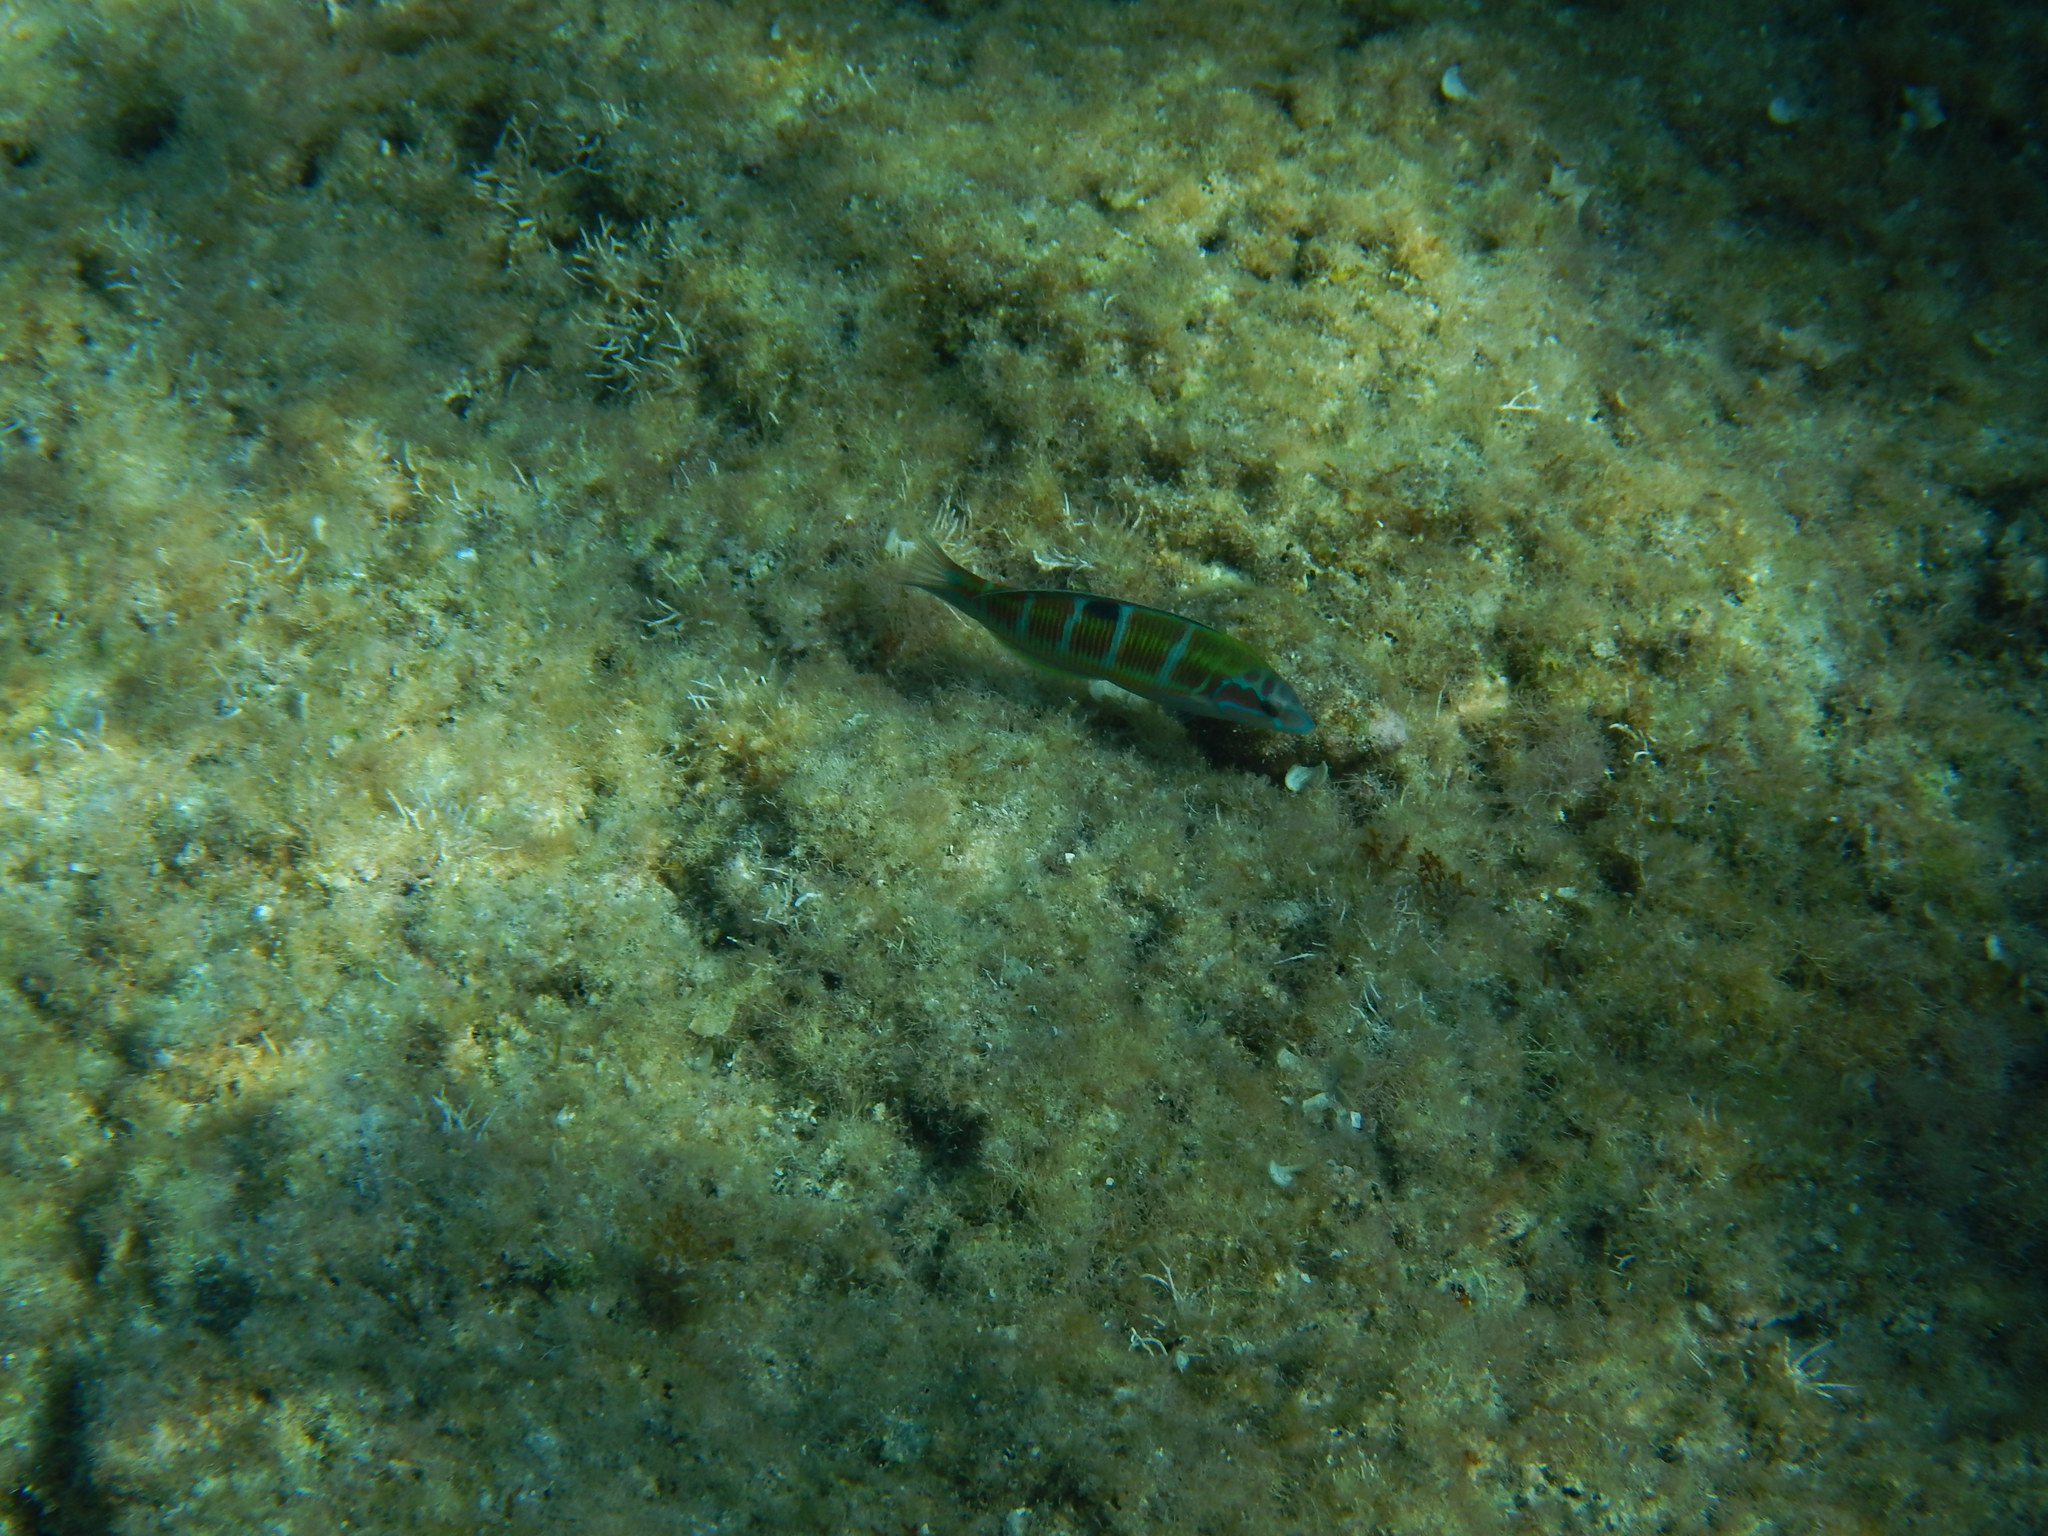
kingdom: Animalia
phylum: Chordata
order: Perciformes
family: Labridae
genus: Thalassoma
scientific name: Thalassoma pavo
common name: Ornate wrasse
